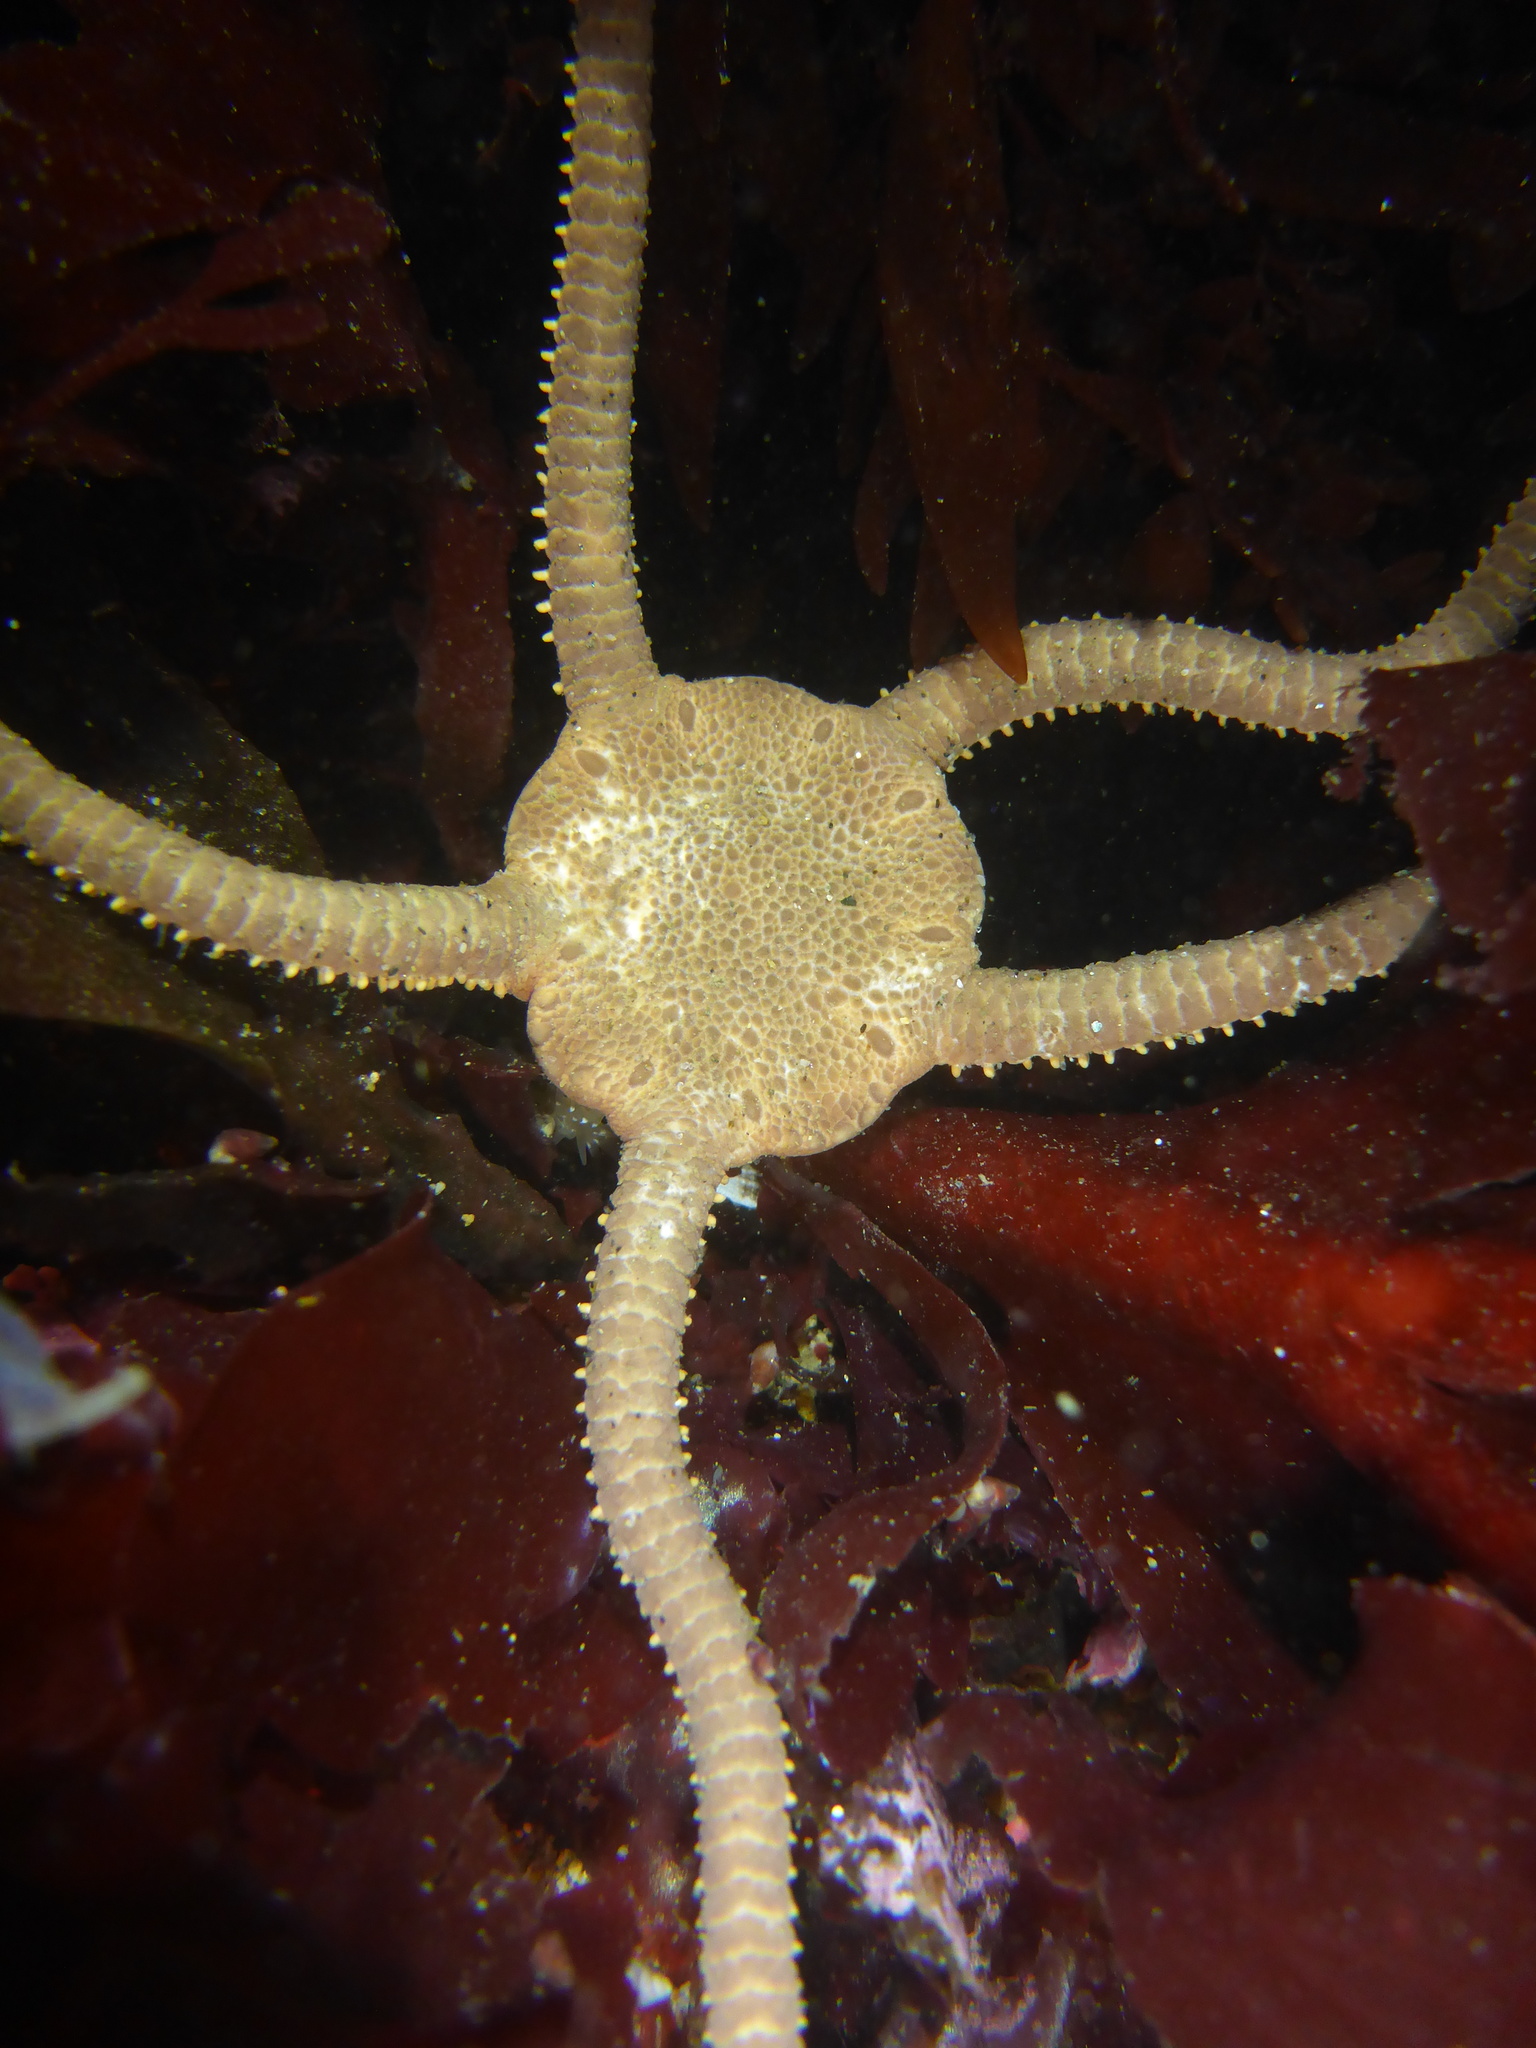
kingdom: Animalia
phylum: Echinodermata
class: Ophiuroidea
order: Amphilepidida
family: Hemieuryalidae
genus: Ophioplocus
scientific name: Ophioplocus esmarki
